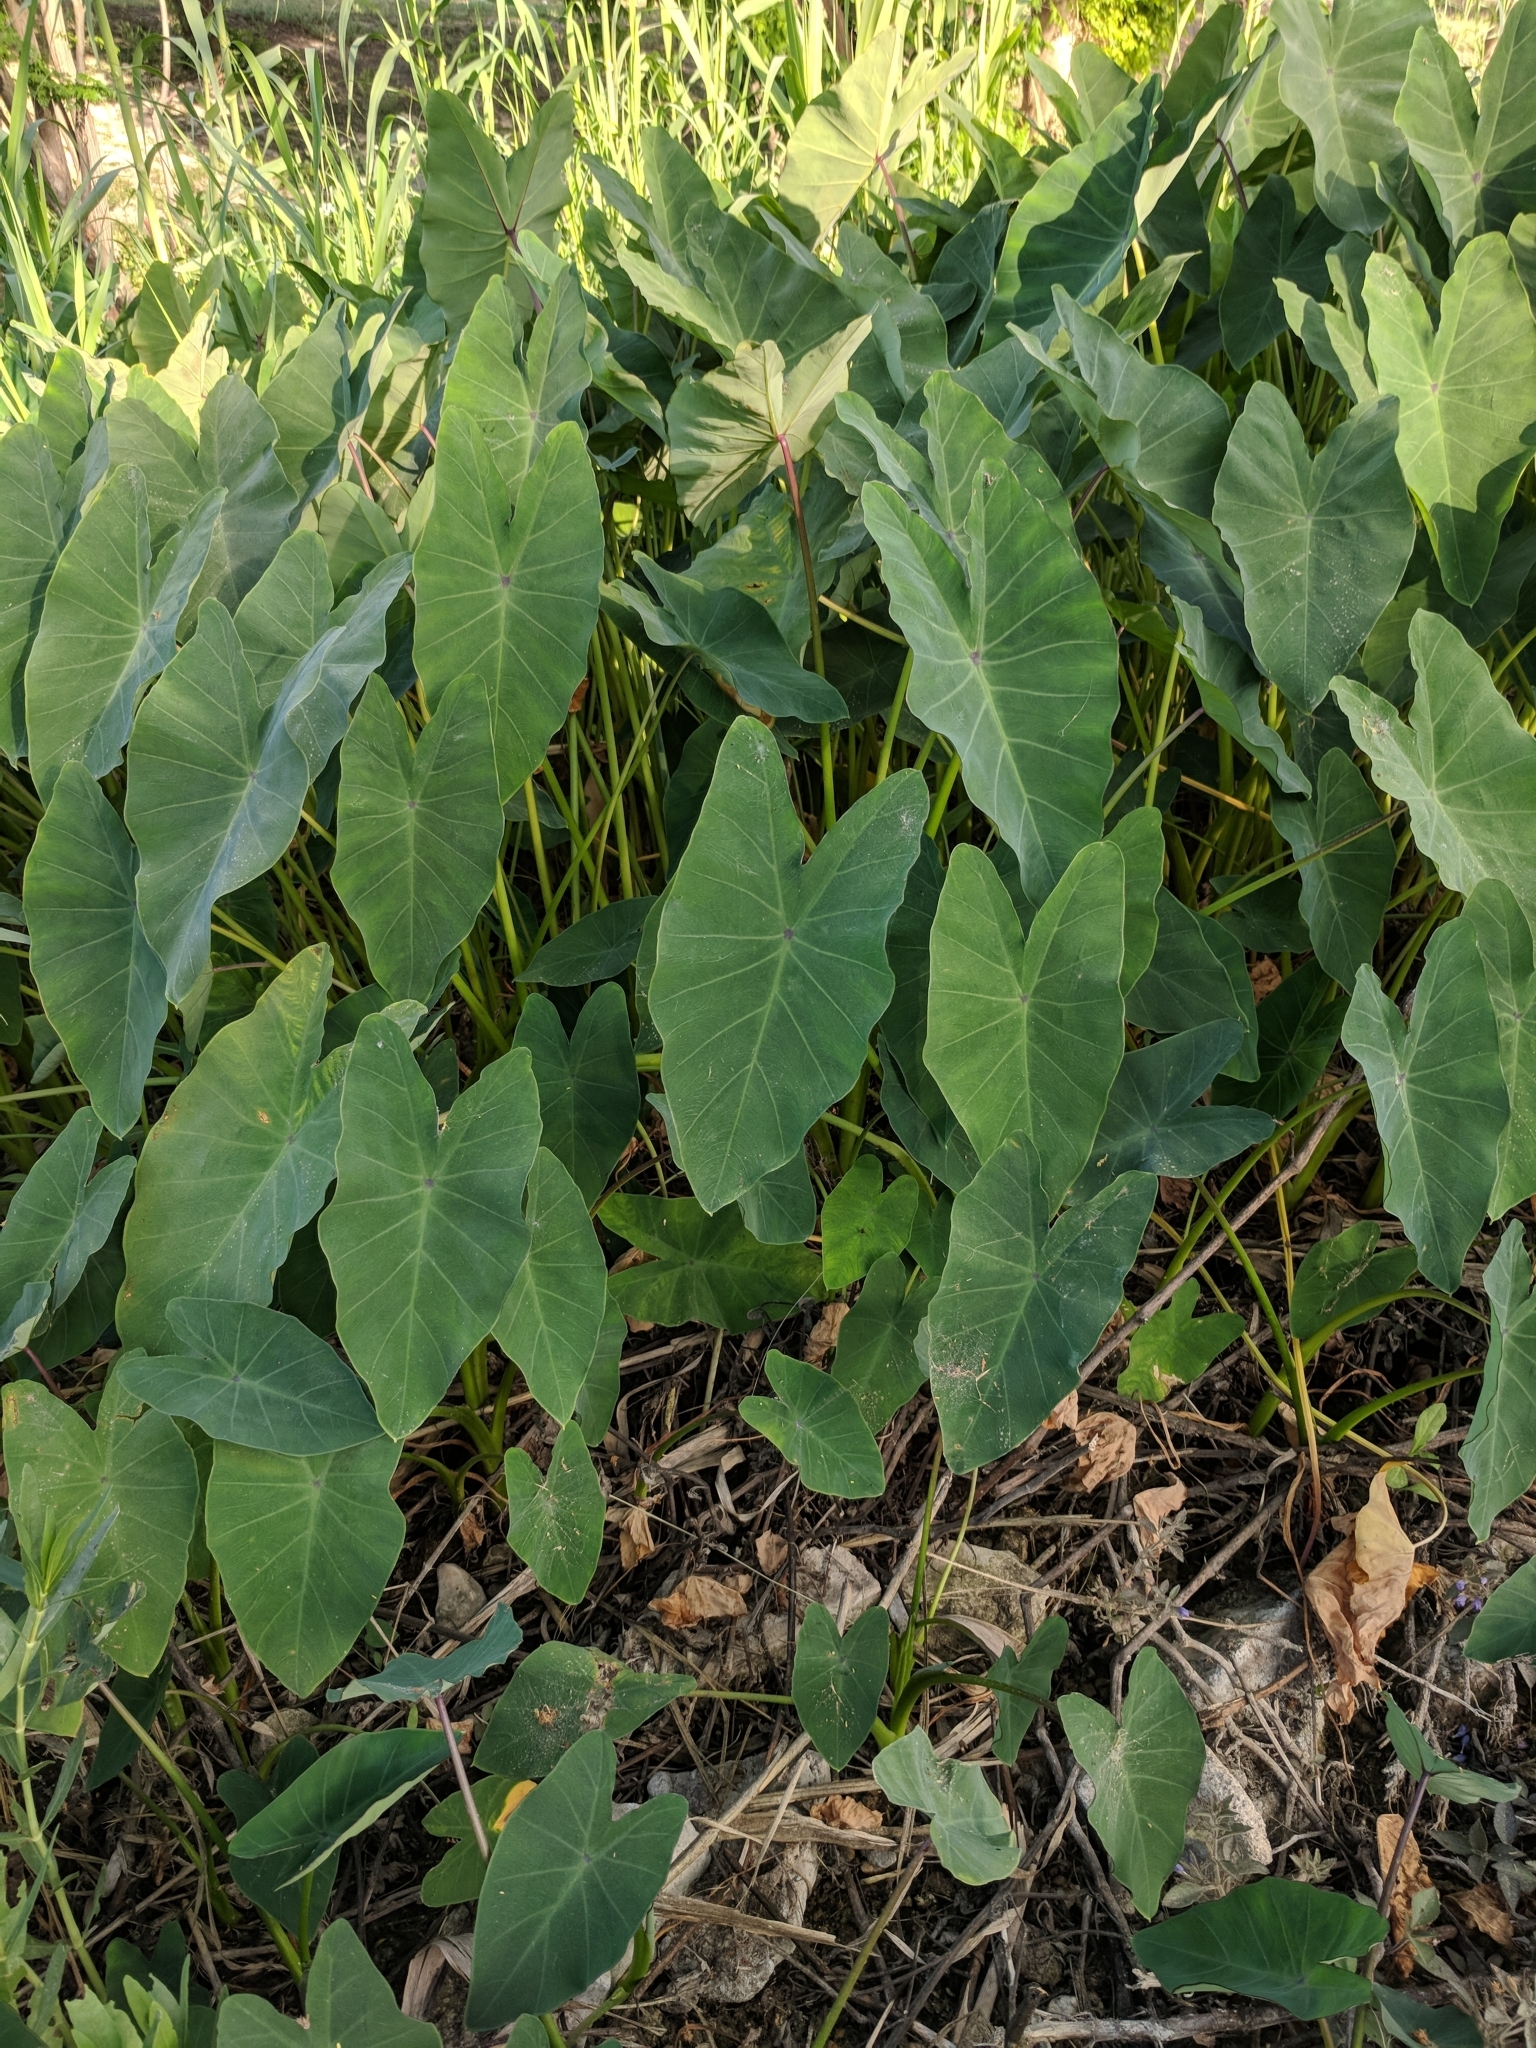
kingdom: Plantae
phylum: Tracheophyta
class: Liliopsida
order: Alismatales
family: Araceae
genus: Colocasia
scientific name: Colocasia esculenta
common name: Taro
